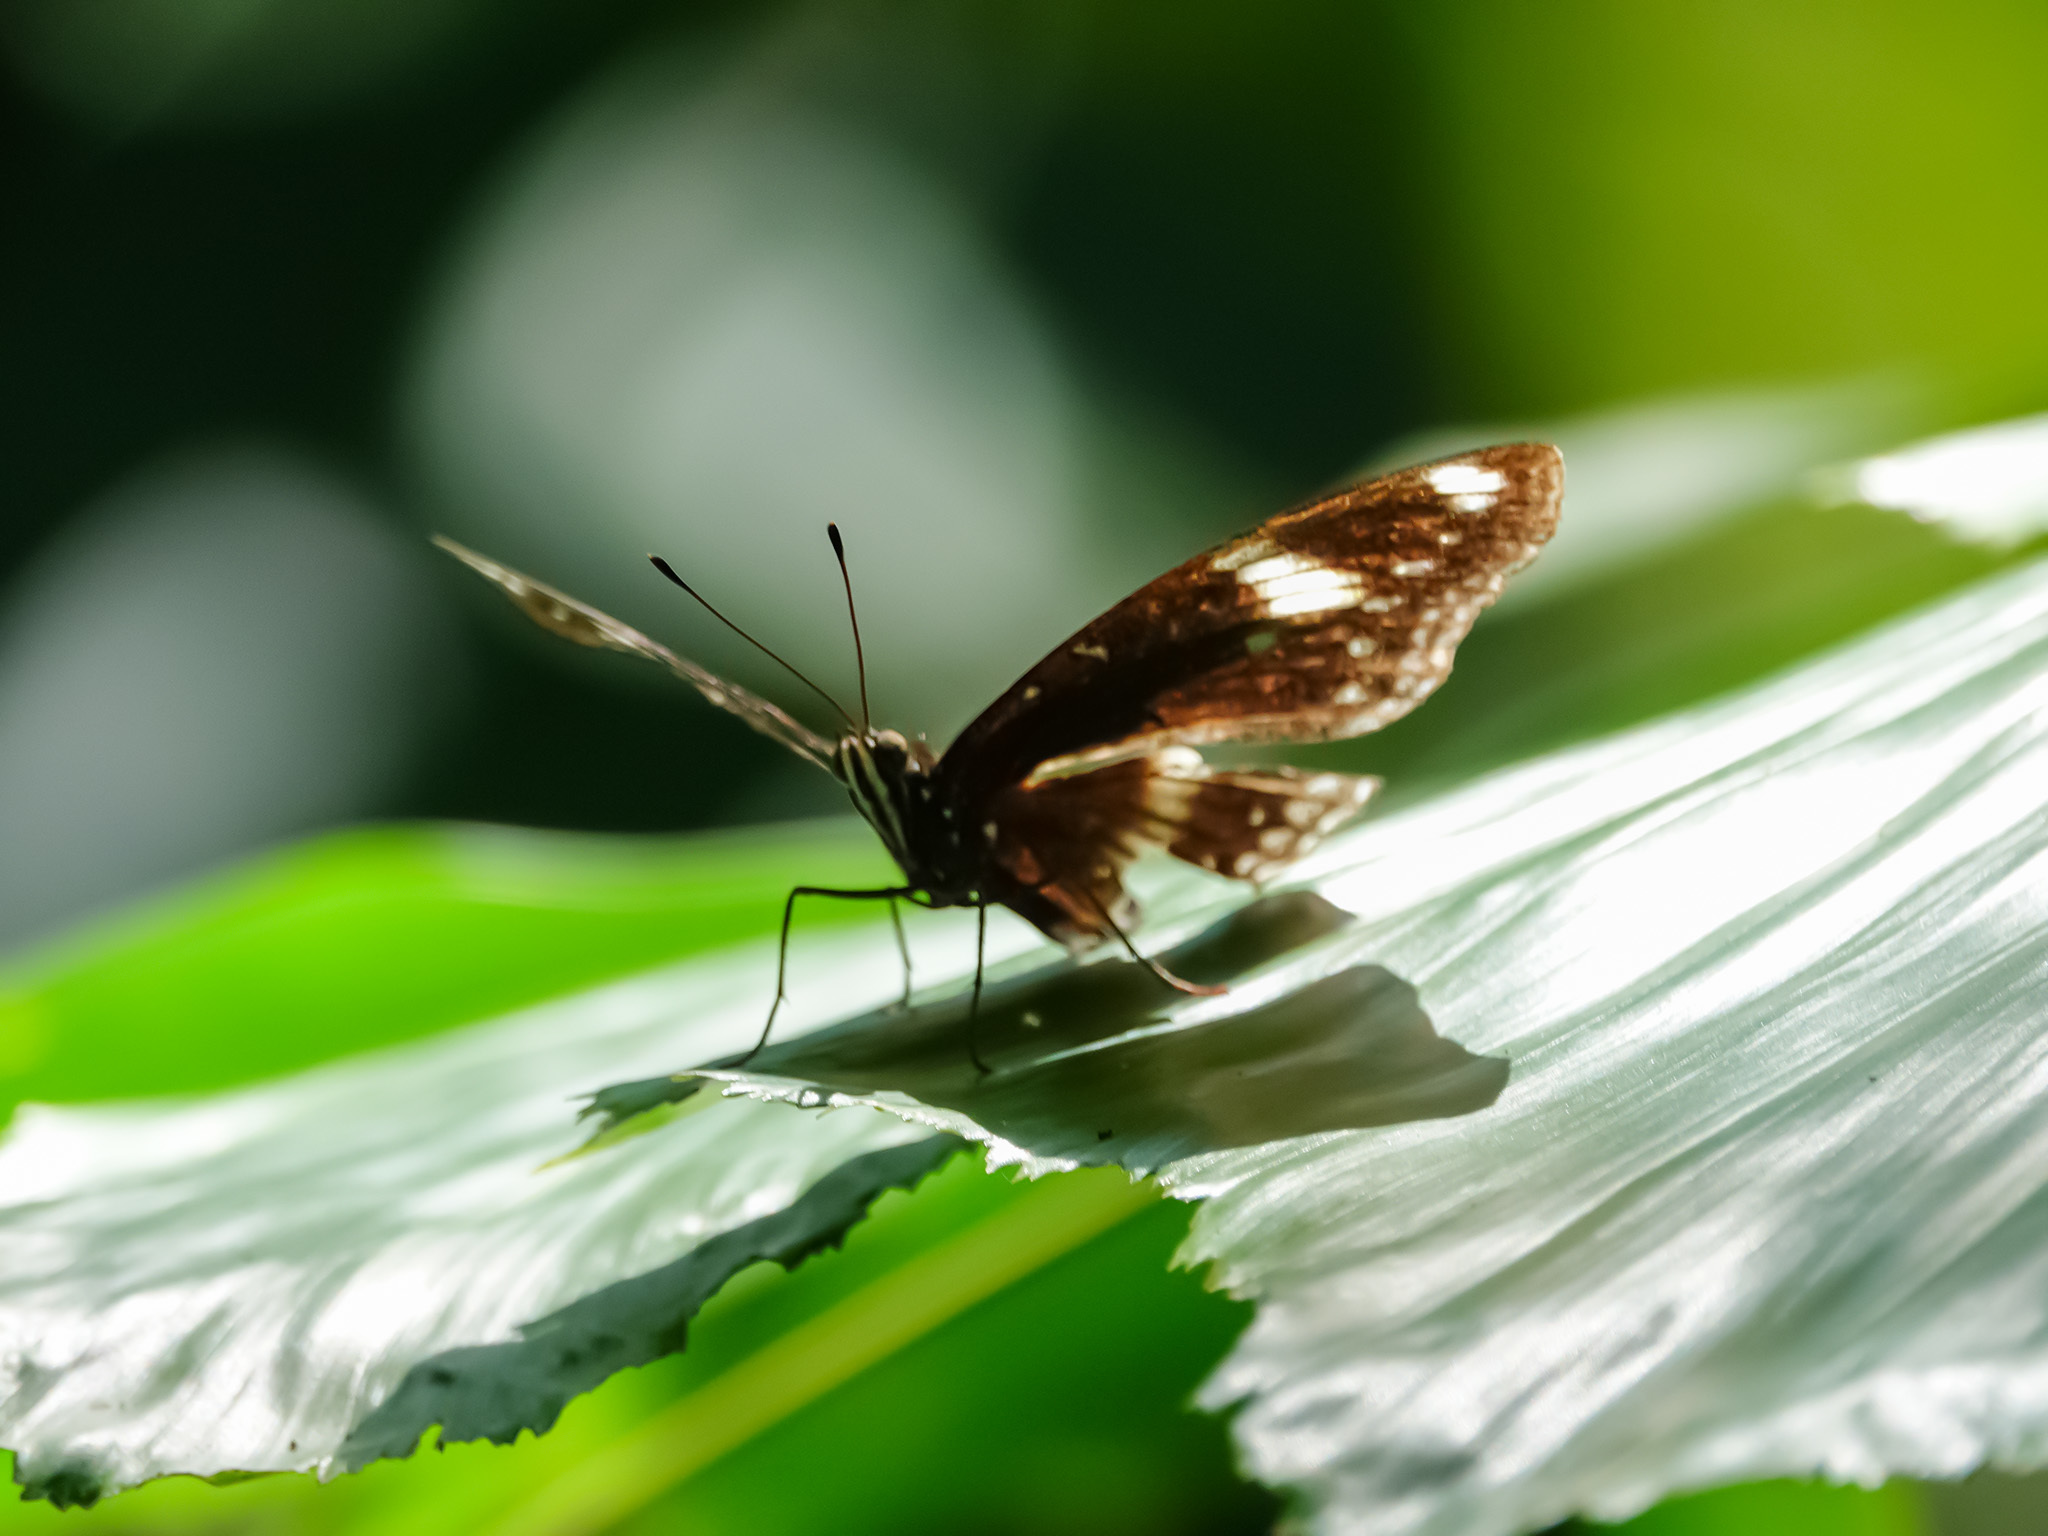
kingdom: Animalia
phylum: Arthropoda
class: Insecta
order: Lepidoptera
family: Nymphalidae
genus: Hypolimnas
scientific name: Hypolimnas bolina
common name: Great eggfly
